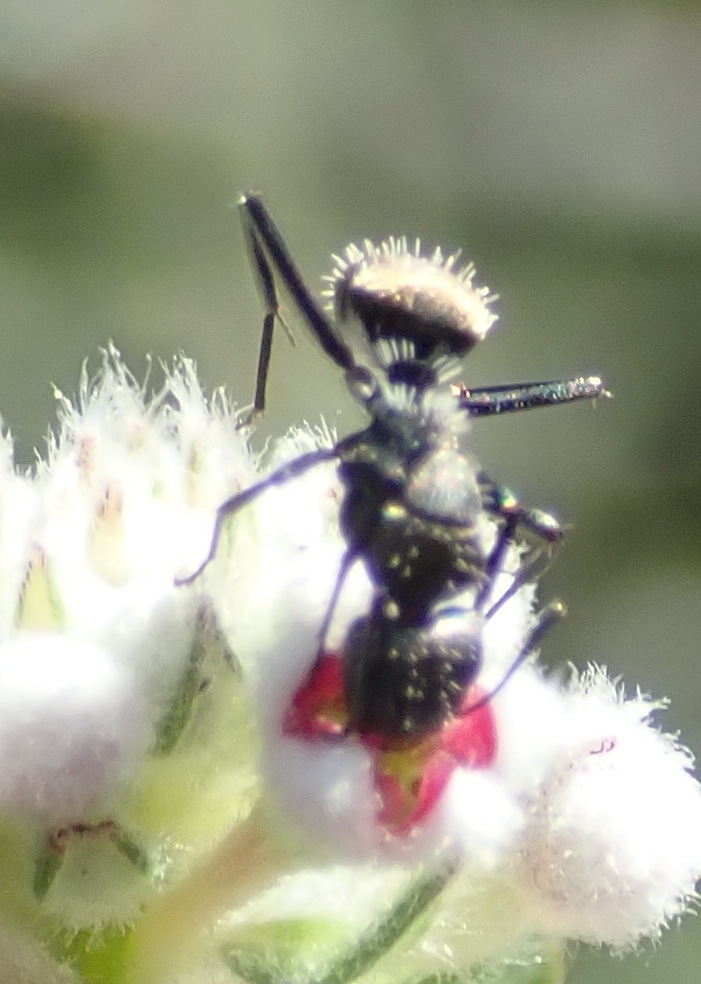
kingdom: Animalia
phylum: Arthropoda
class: Insecta
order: Hymenoptera
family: Formicidae
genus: Camponotus
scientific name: Camponotus niveosetosus
